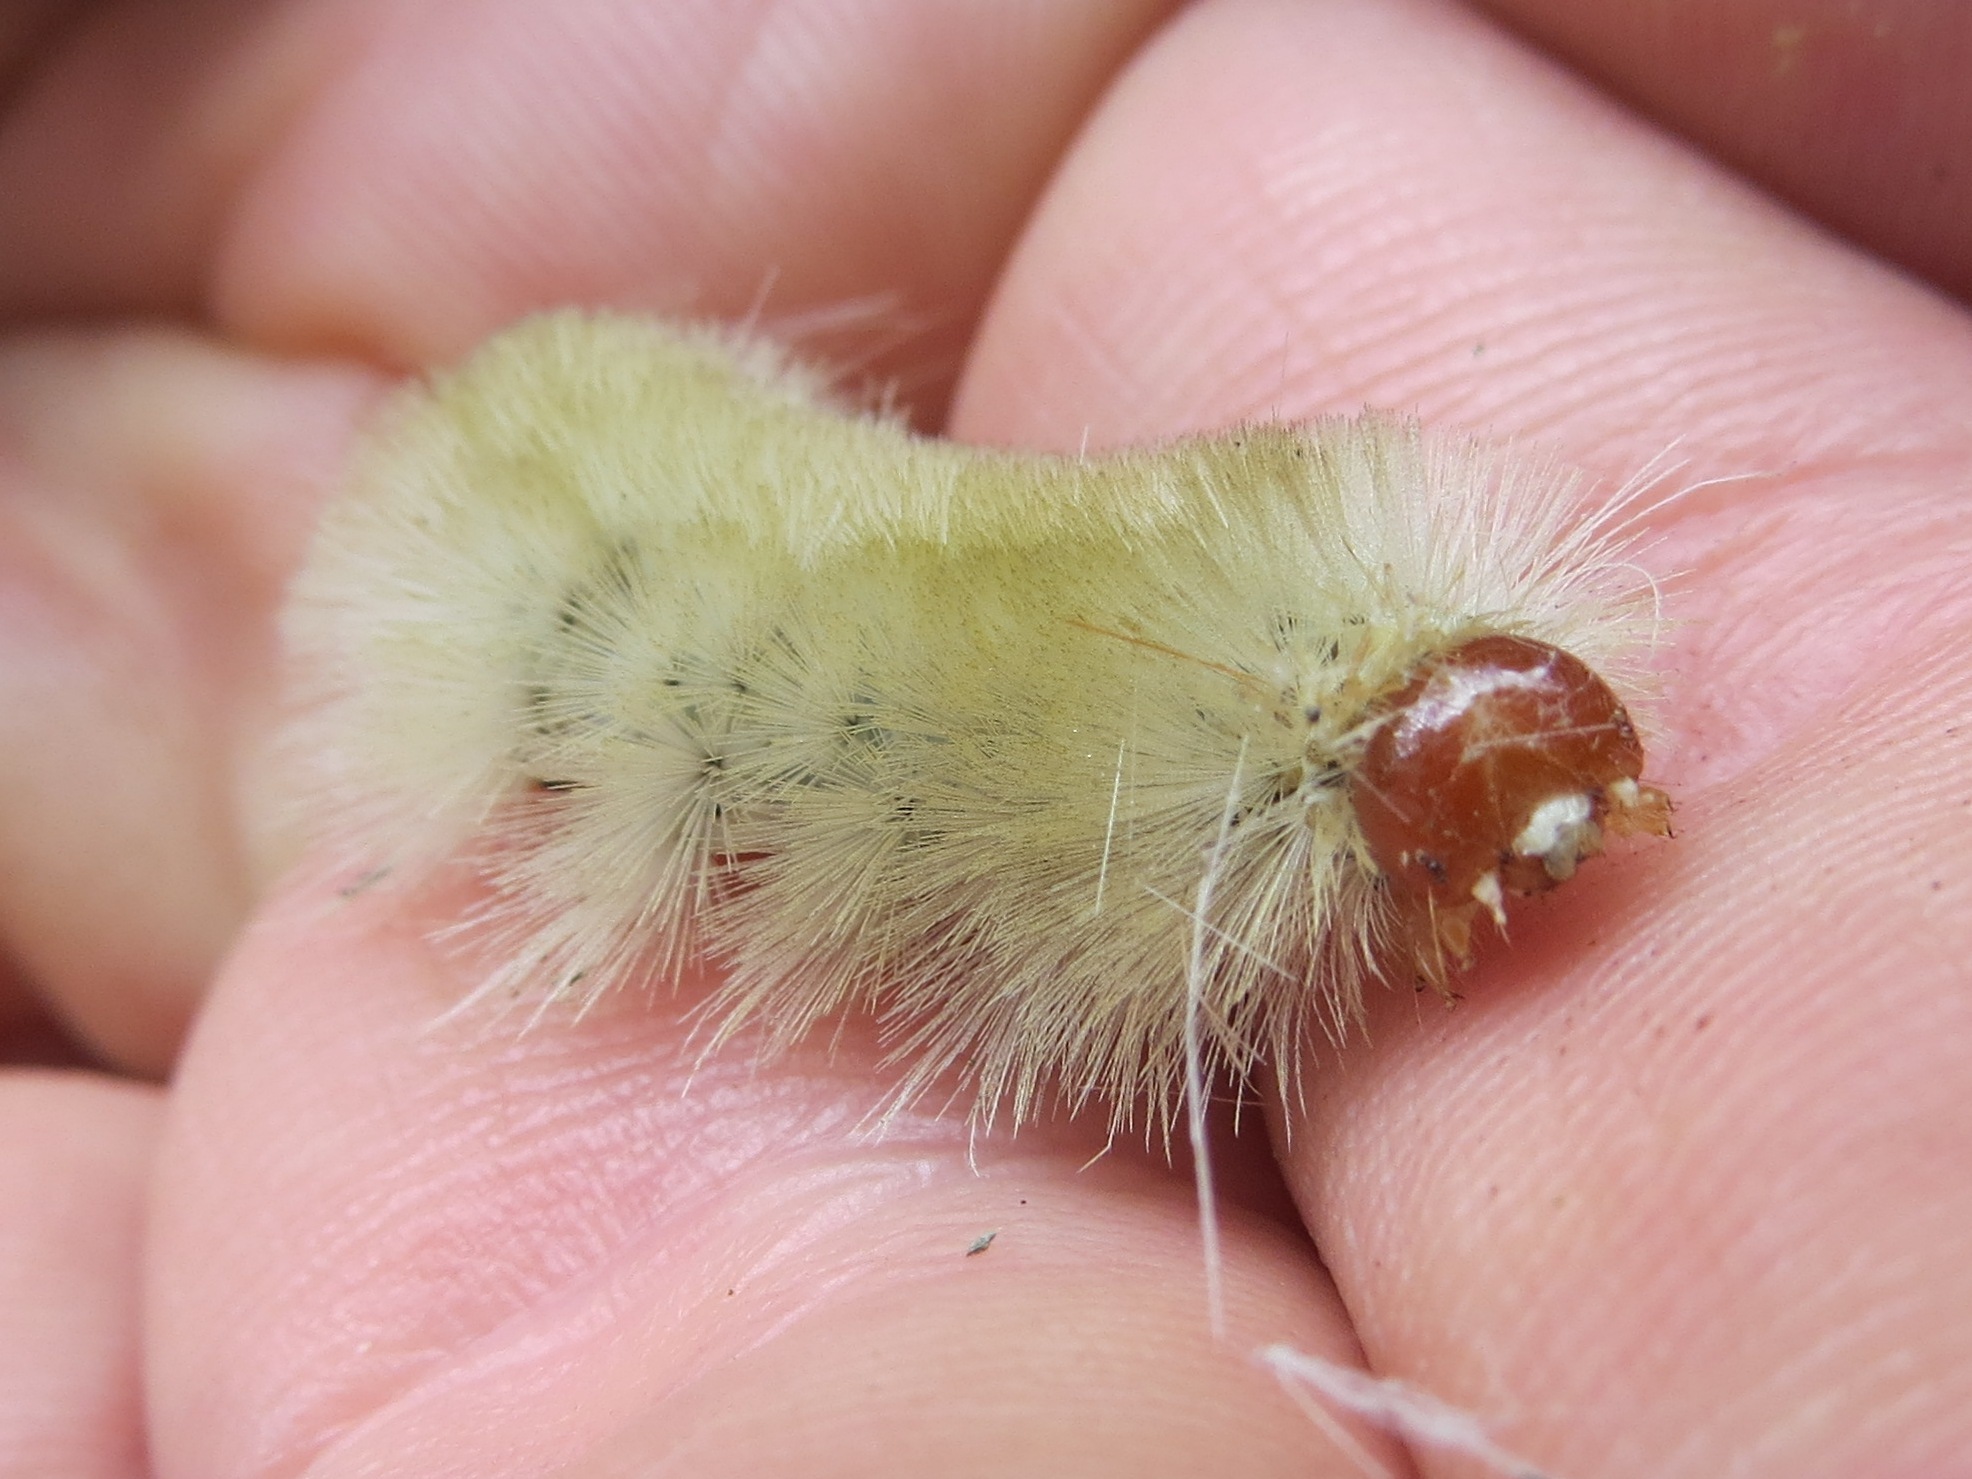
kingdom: Animalia
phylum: Arthropoda
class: Insecta
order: Lepidoptera
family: Erebidae
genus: Halysidota
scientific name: Halysidota harrisii
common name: Sycamore tussock moth
